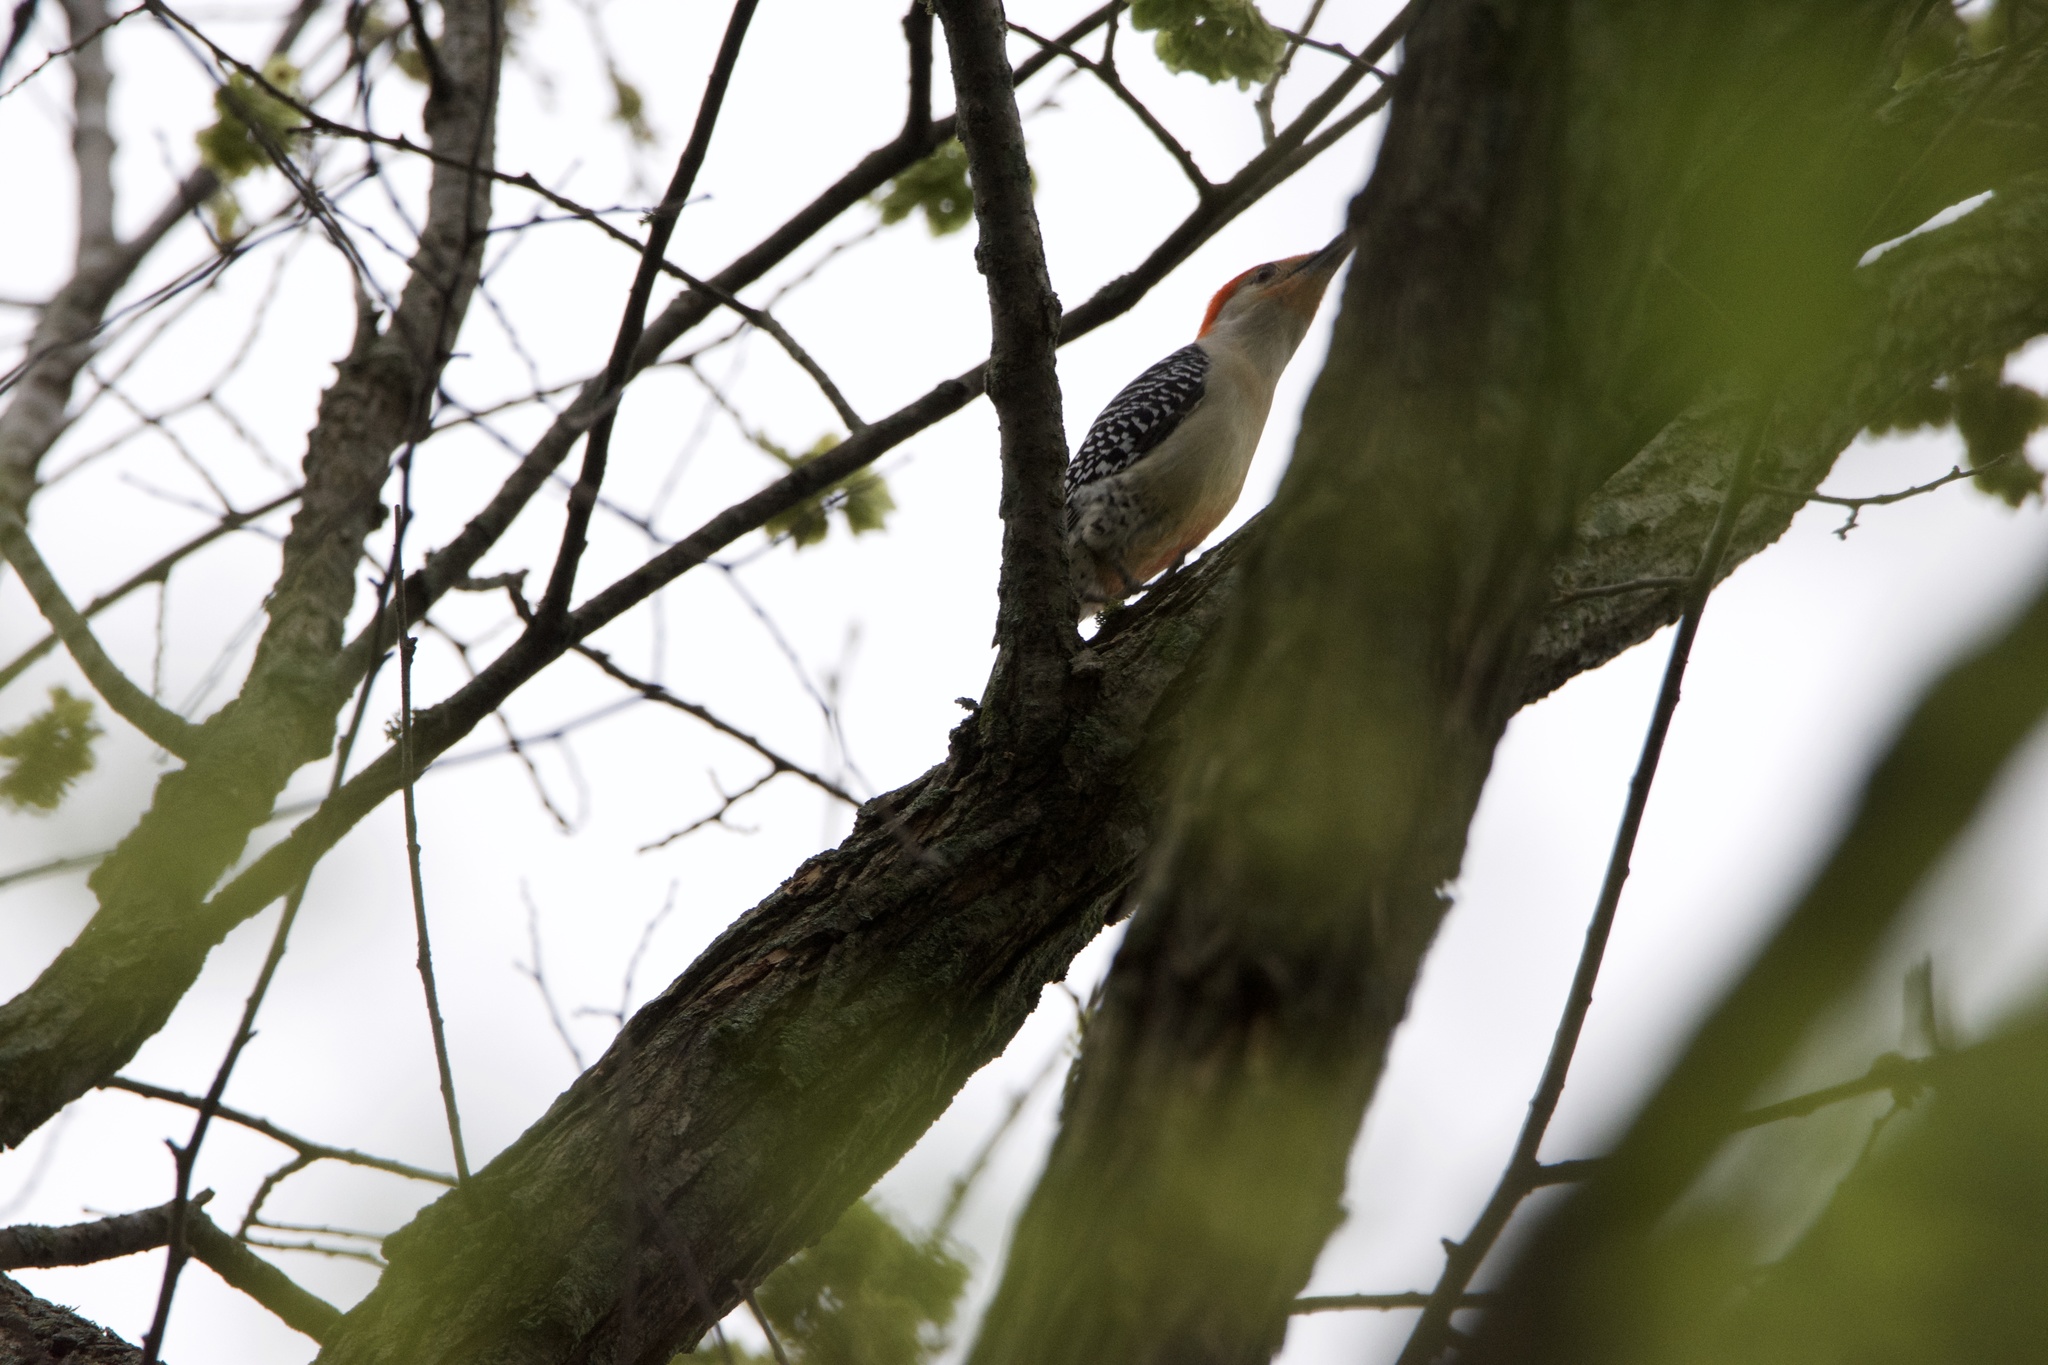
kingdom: Animalia
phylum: Chordata
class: Aves
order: Piciformes
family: Picidae
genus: Melanerpes
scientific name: Melanerpes carolinus
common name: Red-bellied woodpecker
